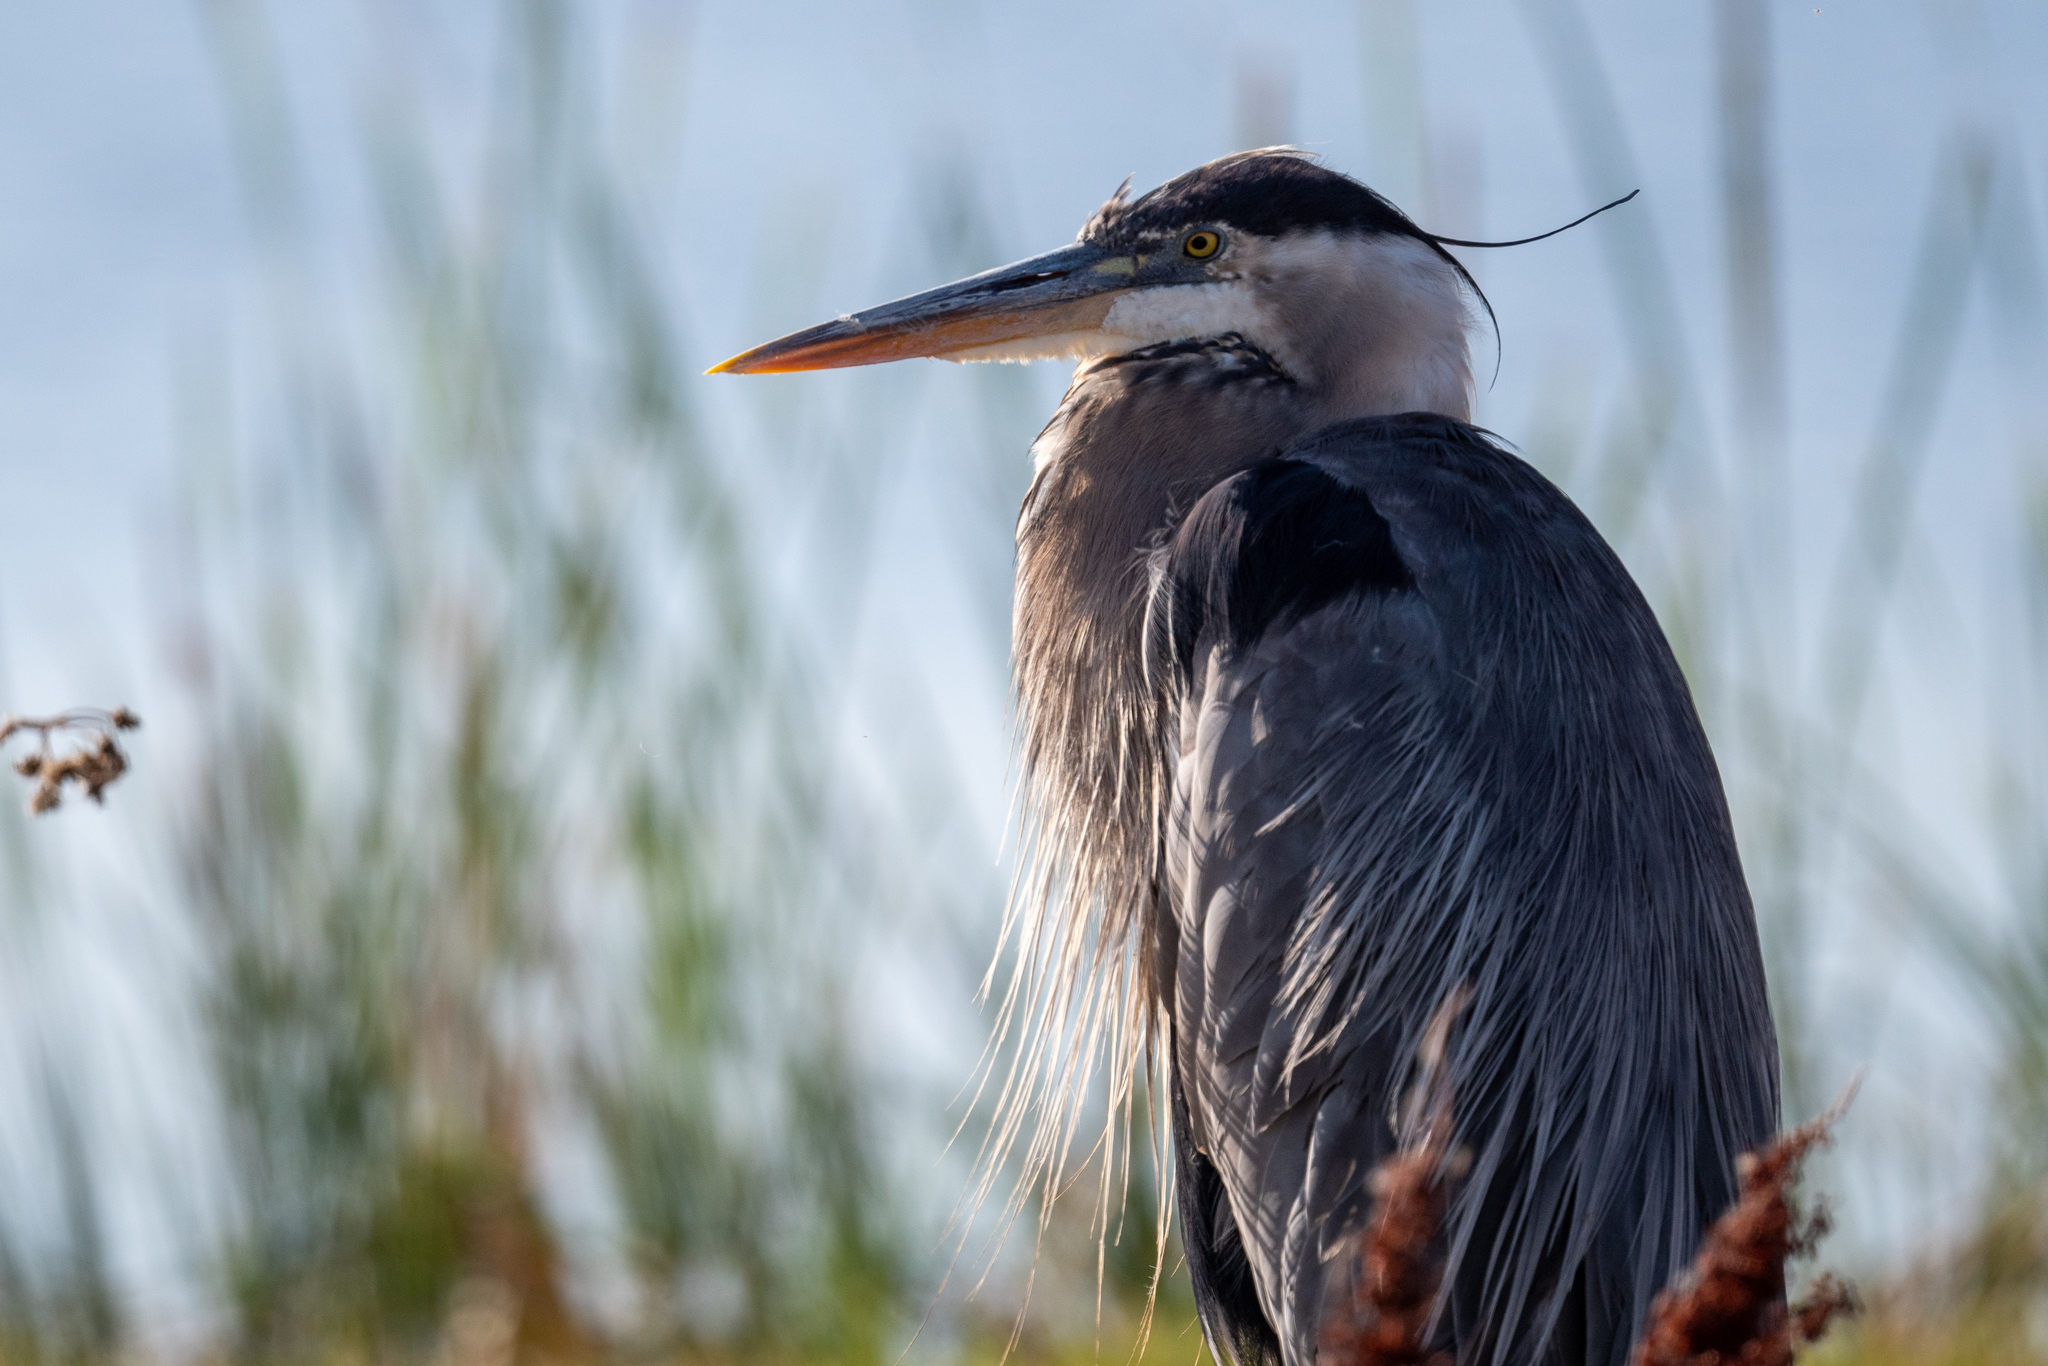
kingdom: Animalia
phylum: Chordata
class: Aves
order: Pelecaniformes
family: Ardeidae
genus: Ardea
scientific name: Ardea herodias
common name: Great blue heron
